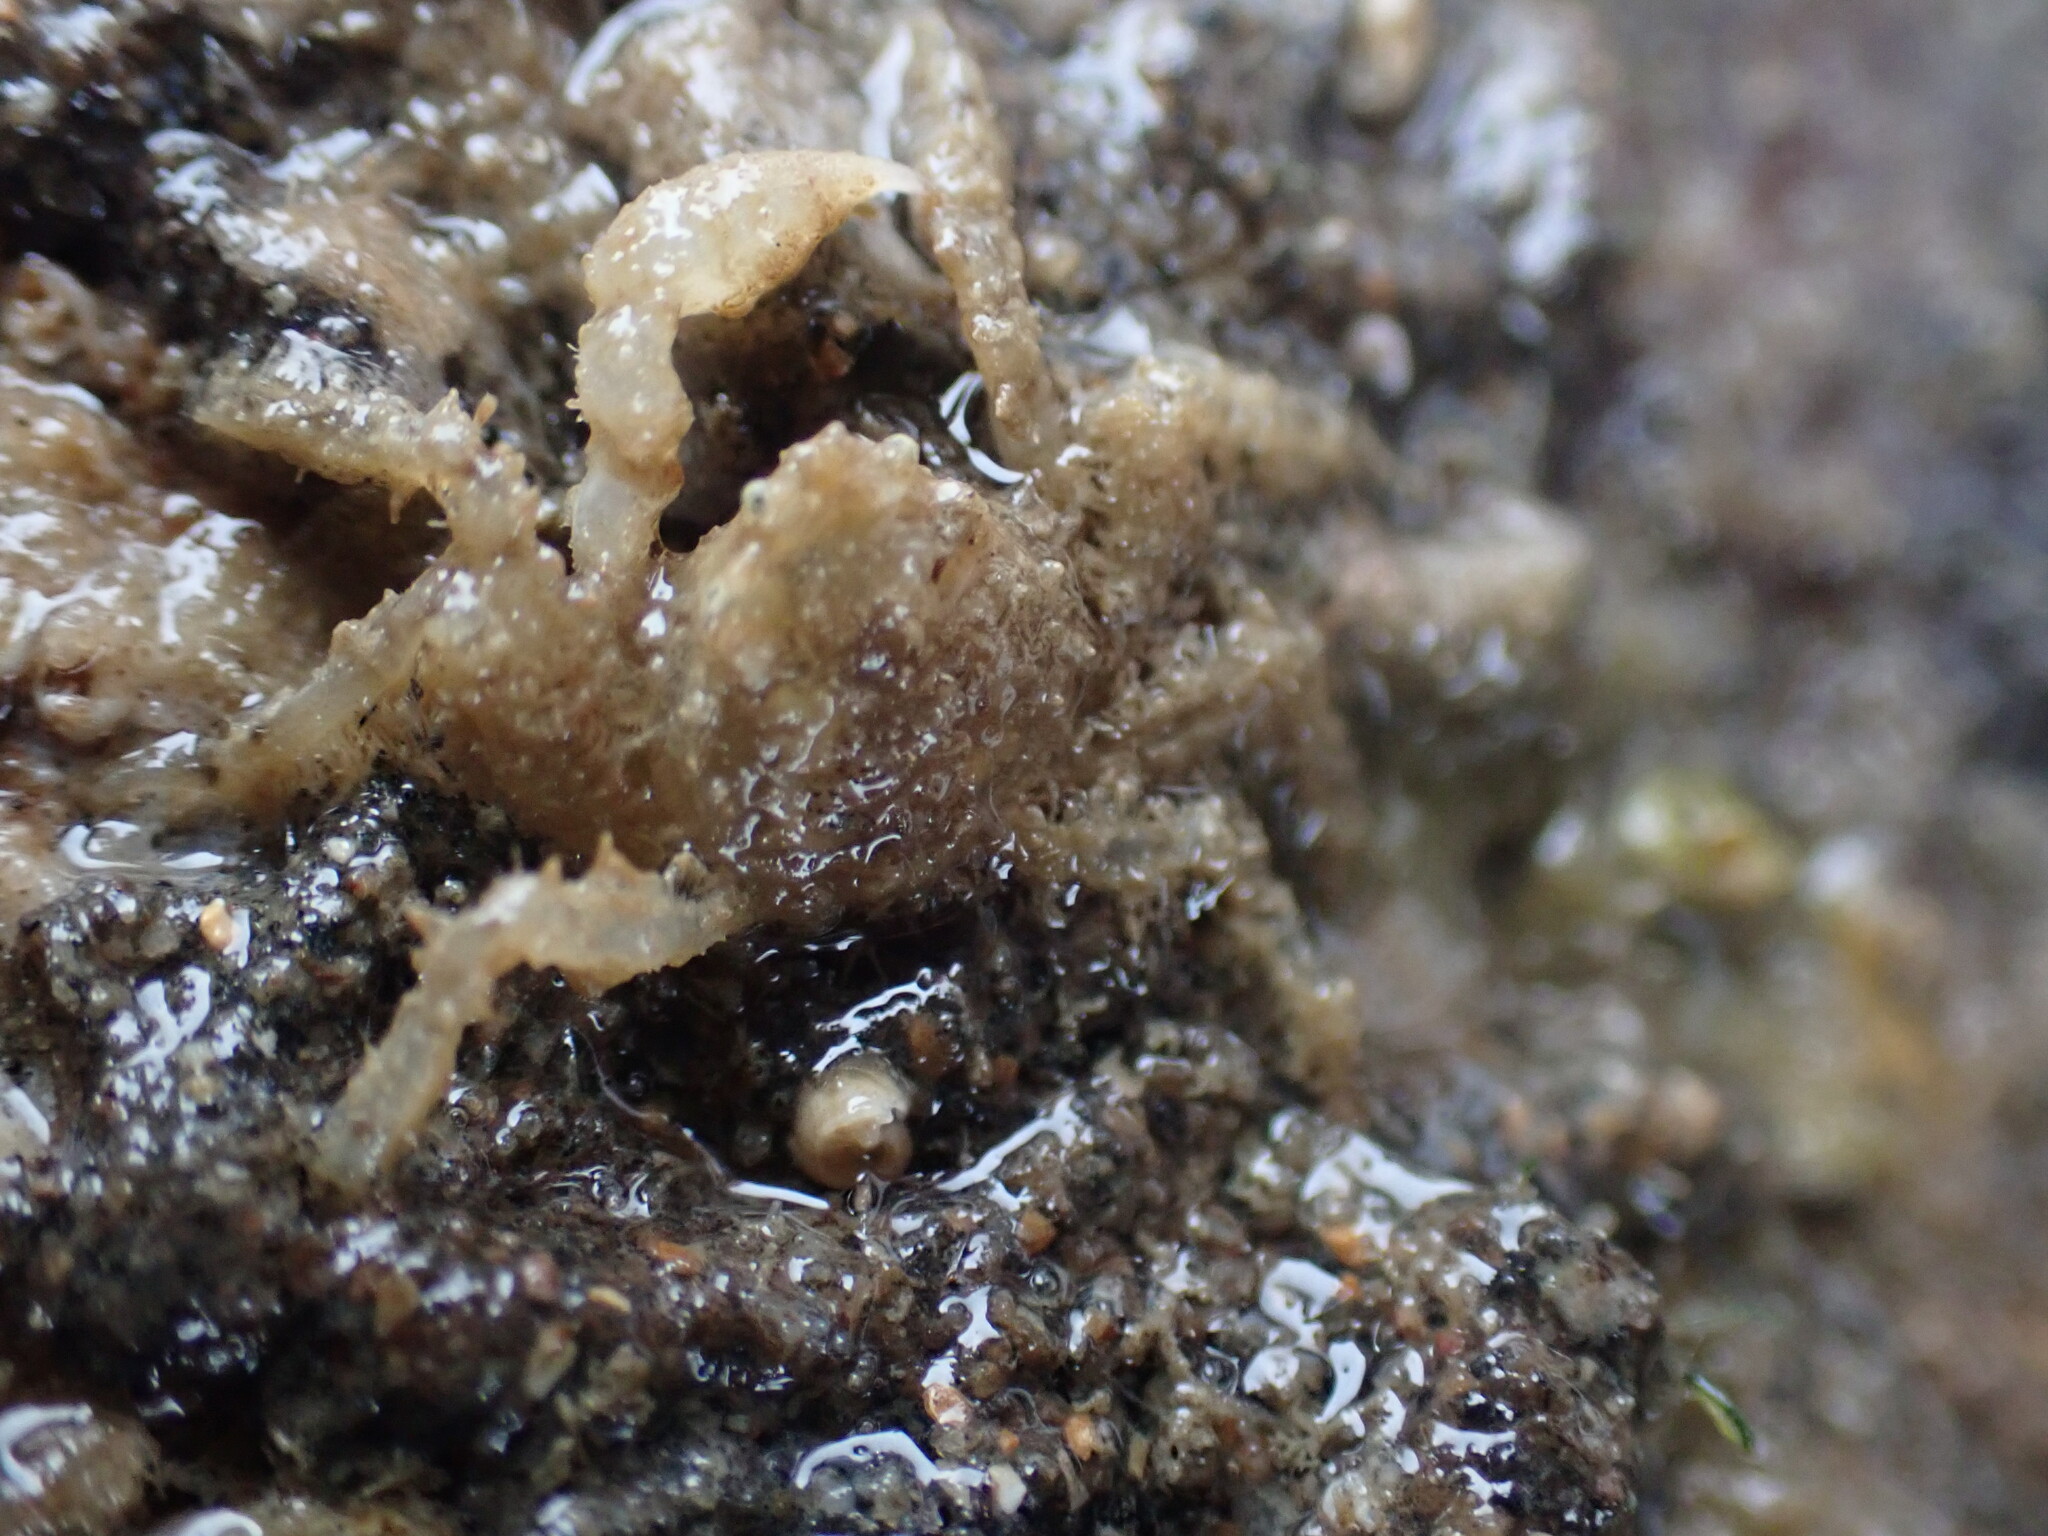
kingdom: Animalia
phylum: Arthropoda
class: Malacostraca
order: Decapoda
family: Hymenosomatidae
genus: Neohymenicus
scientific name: Neohymenicus pubescens
